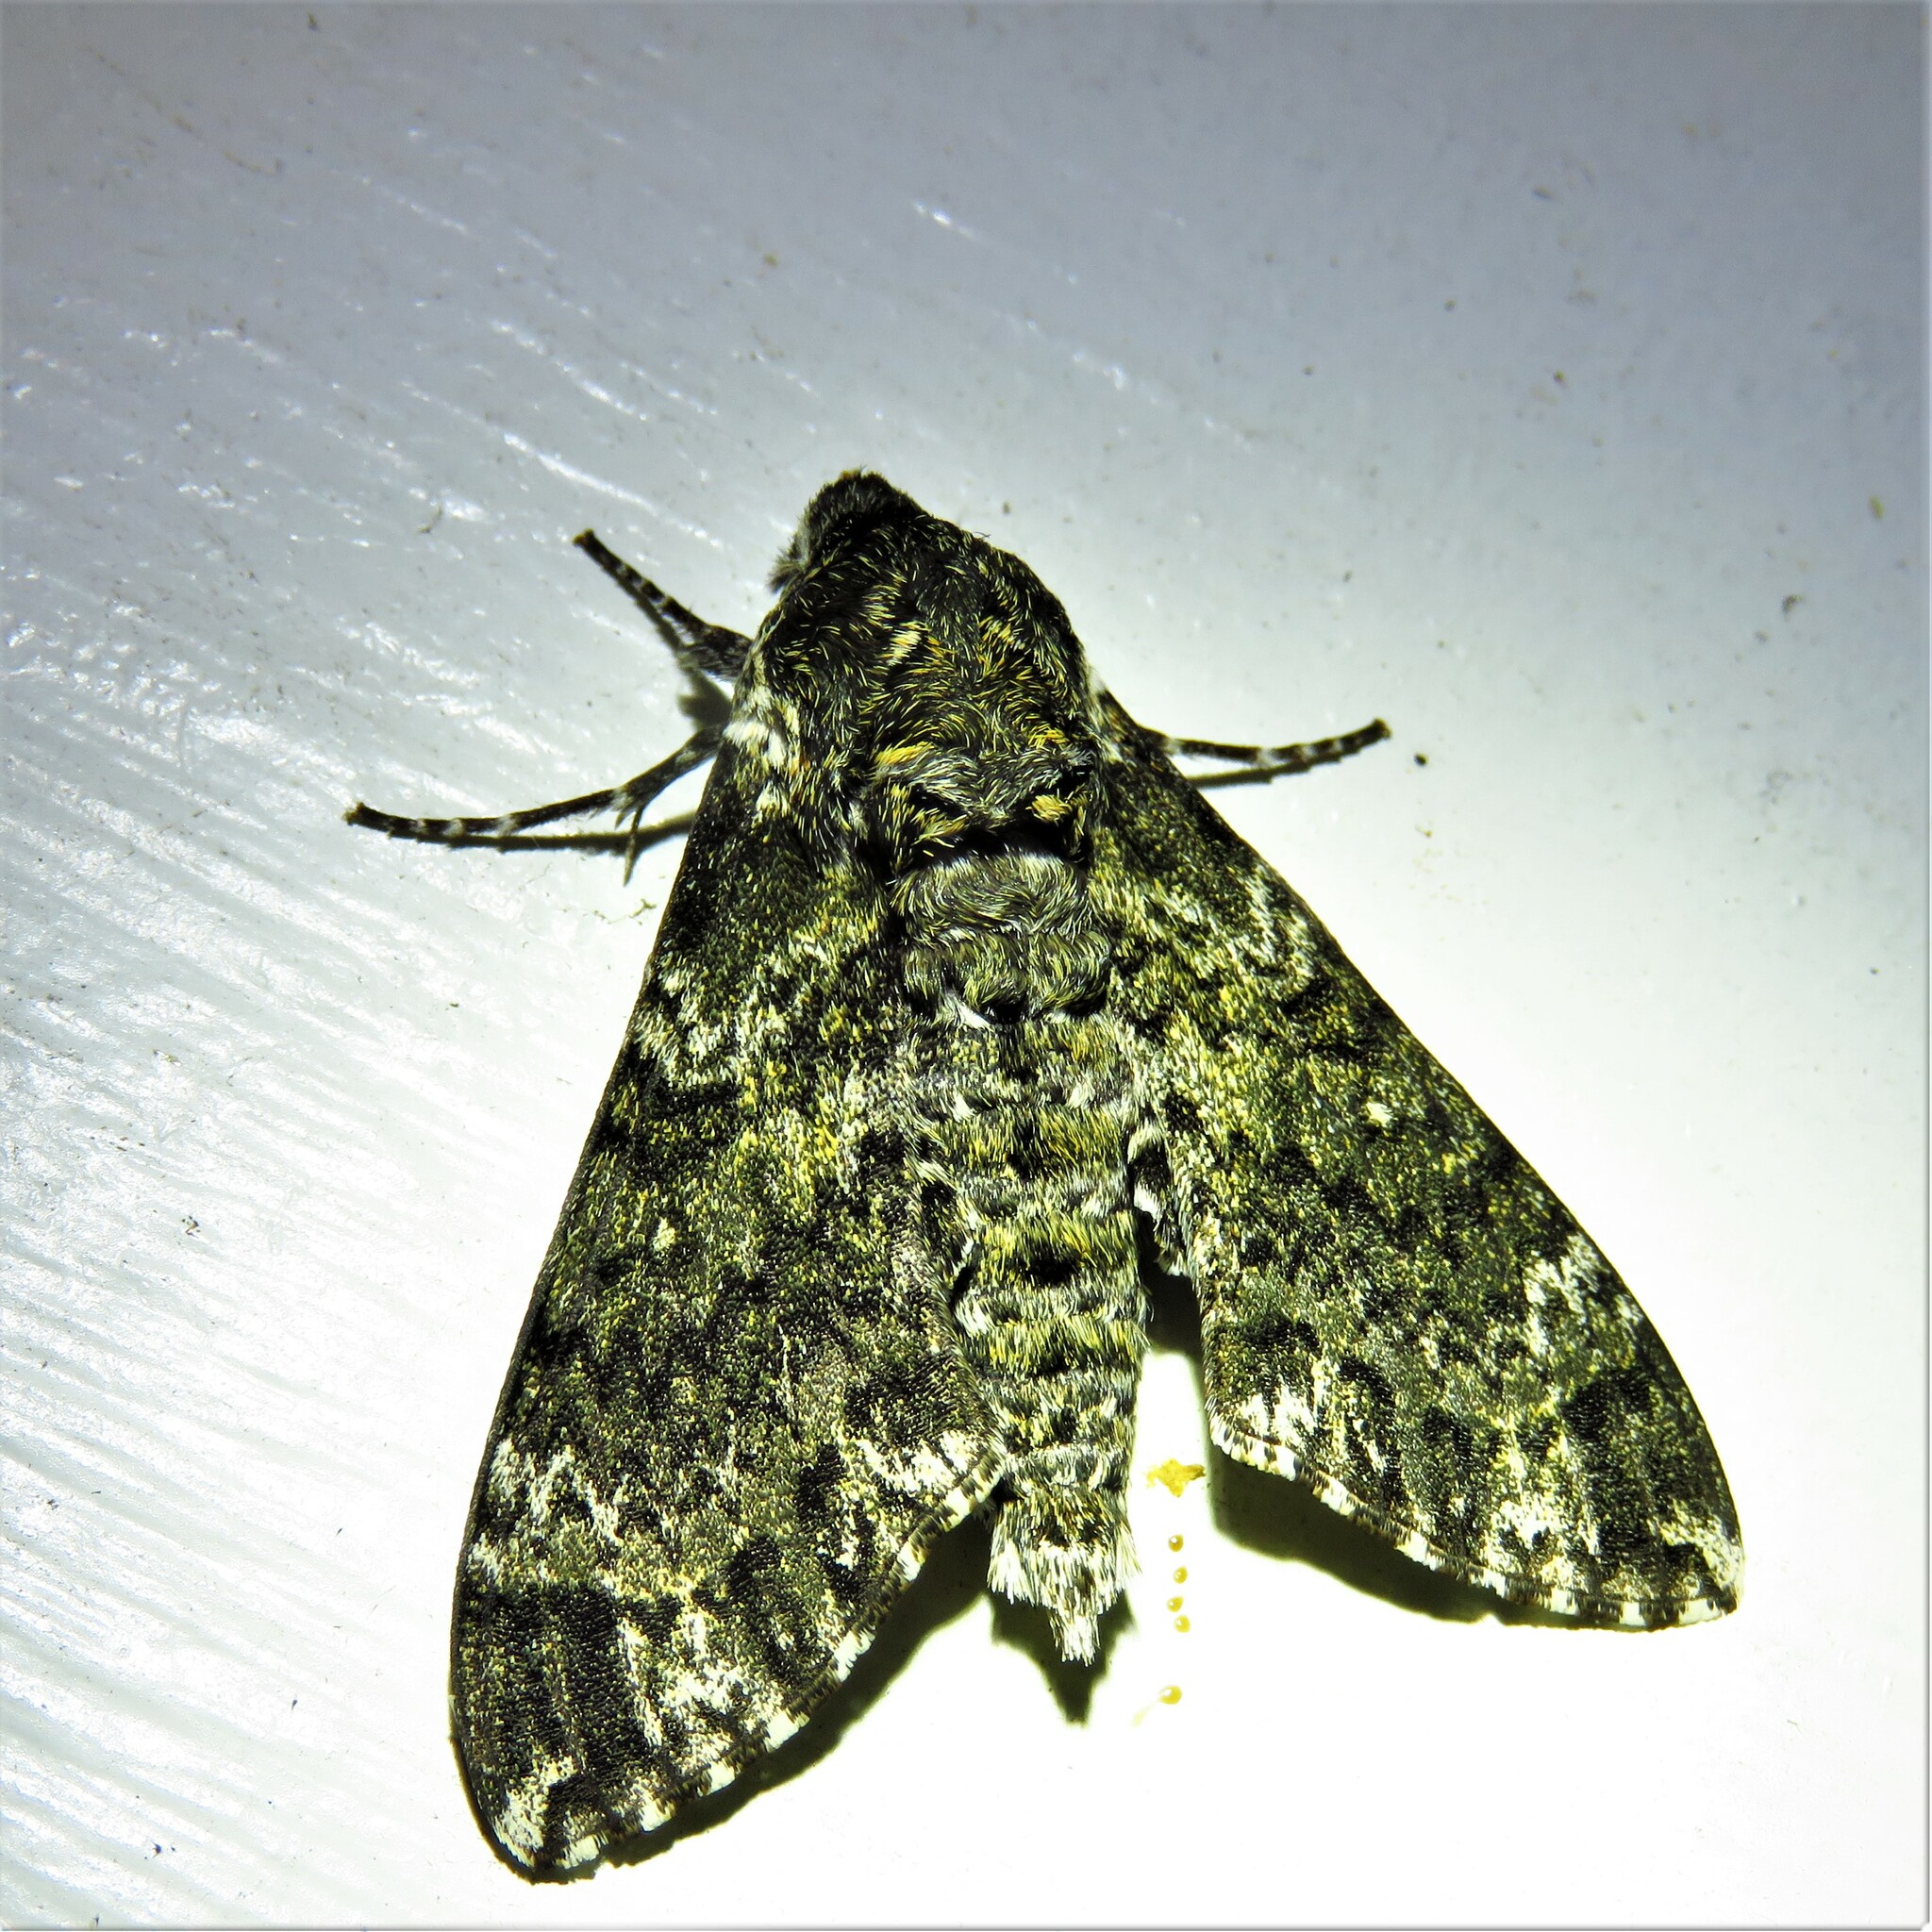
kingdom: Animalia
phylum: Arthropoda
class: Insecta
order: Lepidoptera
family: Sphingidae
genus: Dolba
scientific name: Dolba hyloeus
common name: Pawpaw sphinx
